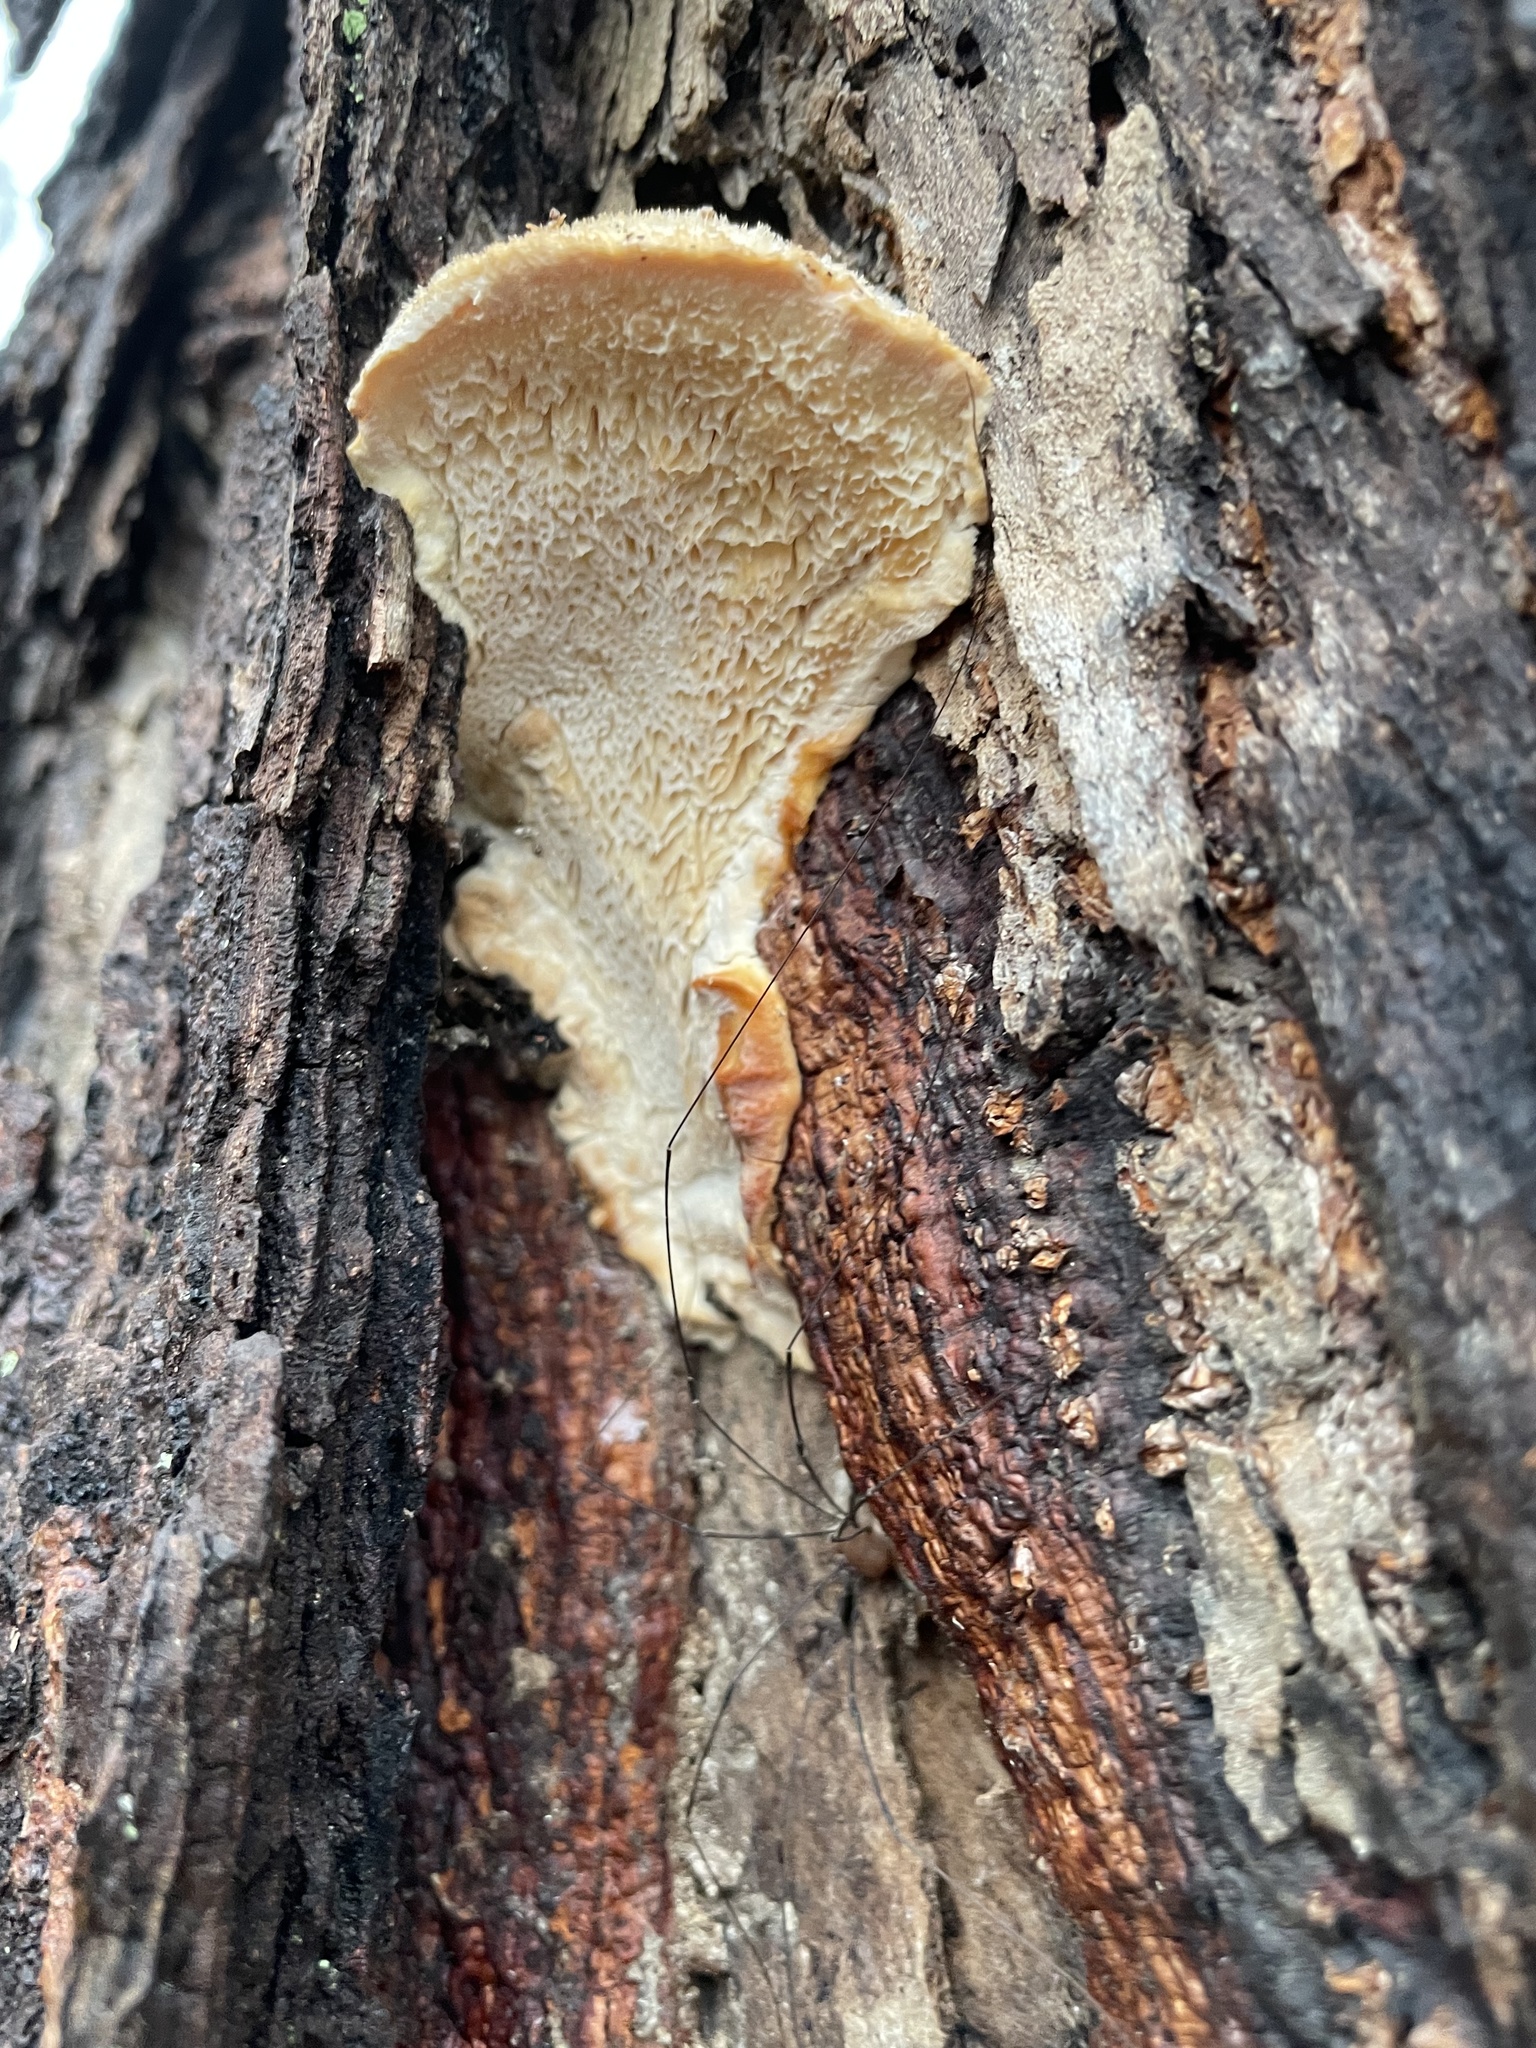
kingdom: Fungi
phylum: Basidiomycota
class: Agaricomycetes
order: Polyporales
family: Meruliaceae
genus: Spongipellis
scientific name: Spongipellis
